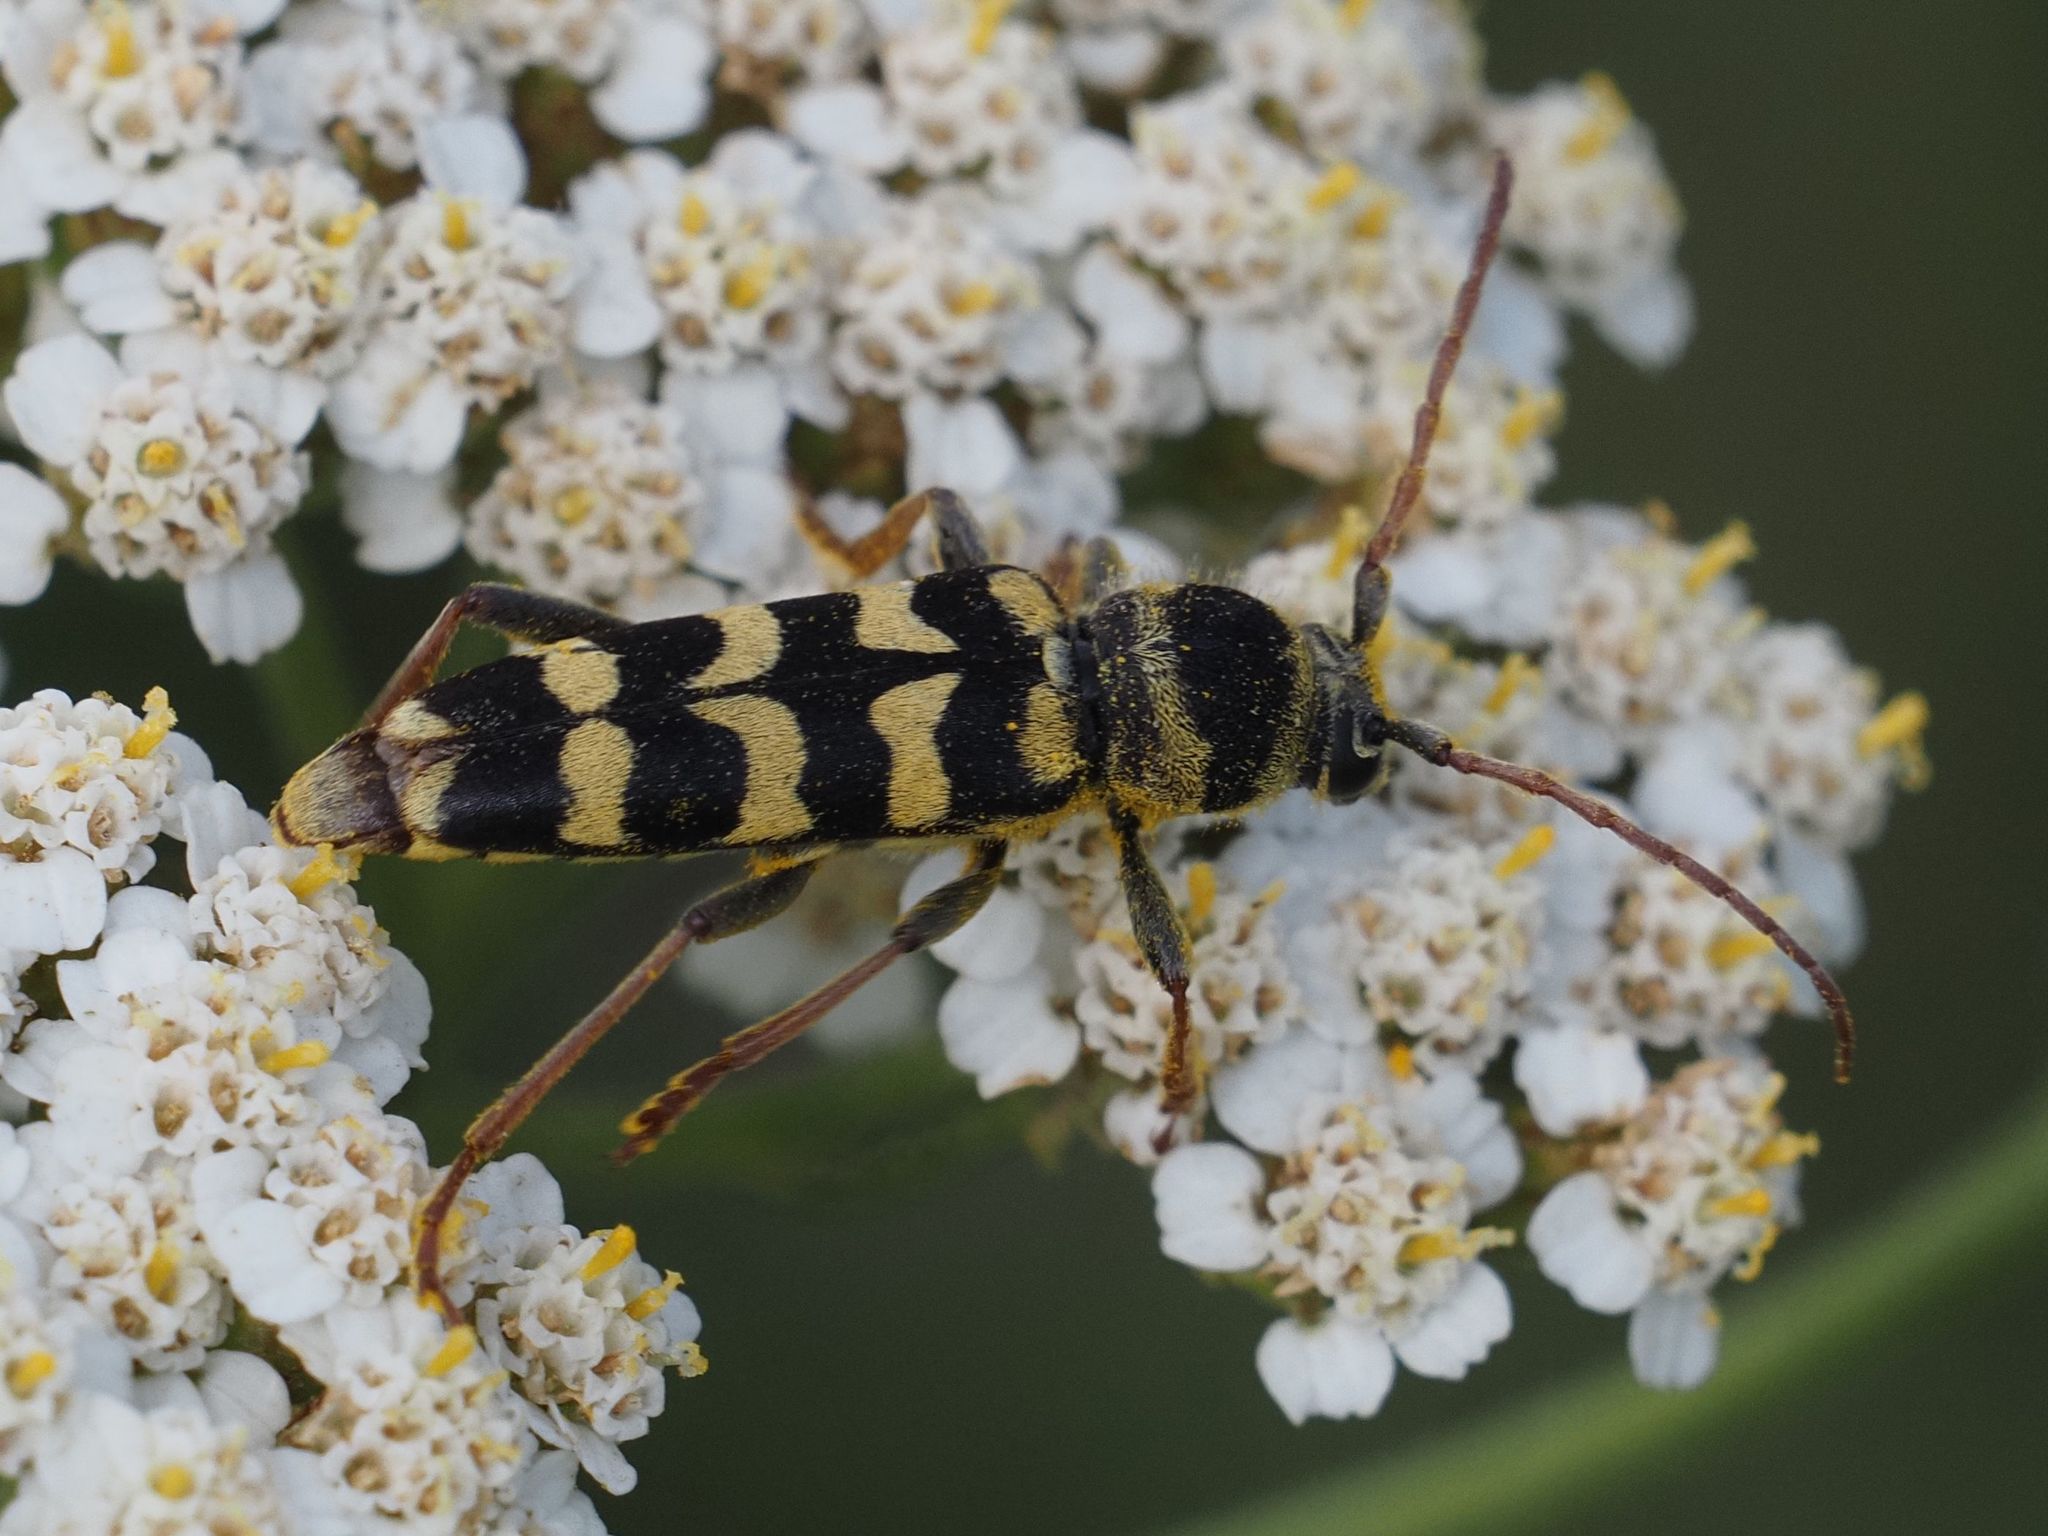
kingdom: Animalia
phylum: Arthropoda
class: Insecta
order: Coleoptera
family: Cerambycidae
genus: Plagionotus
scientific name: Plagionotus floralis
